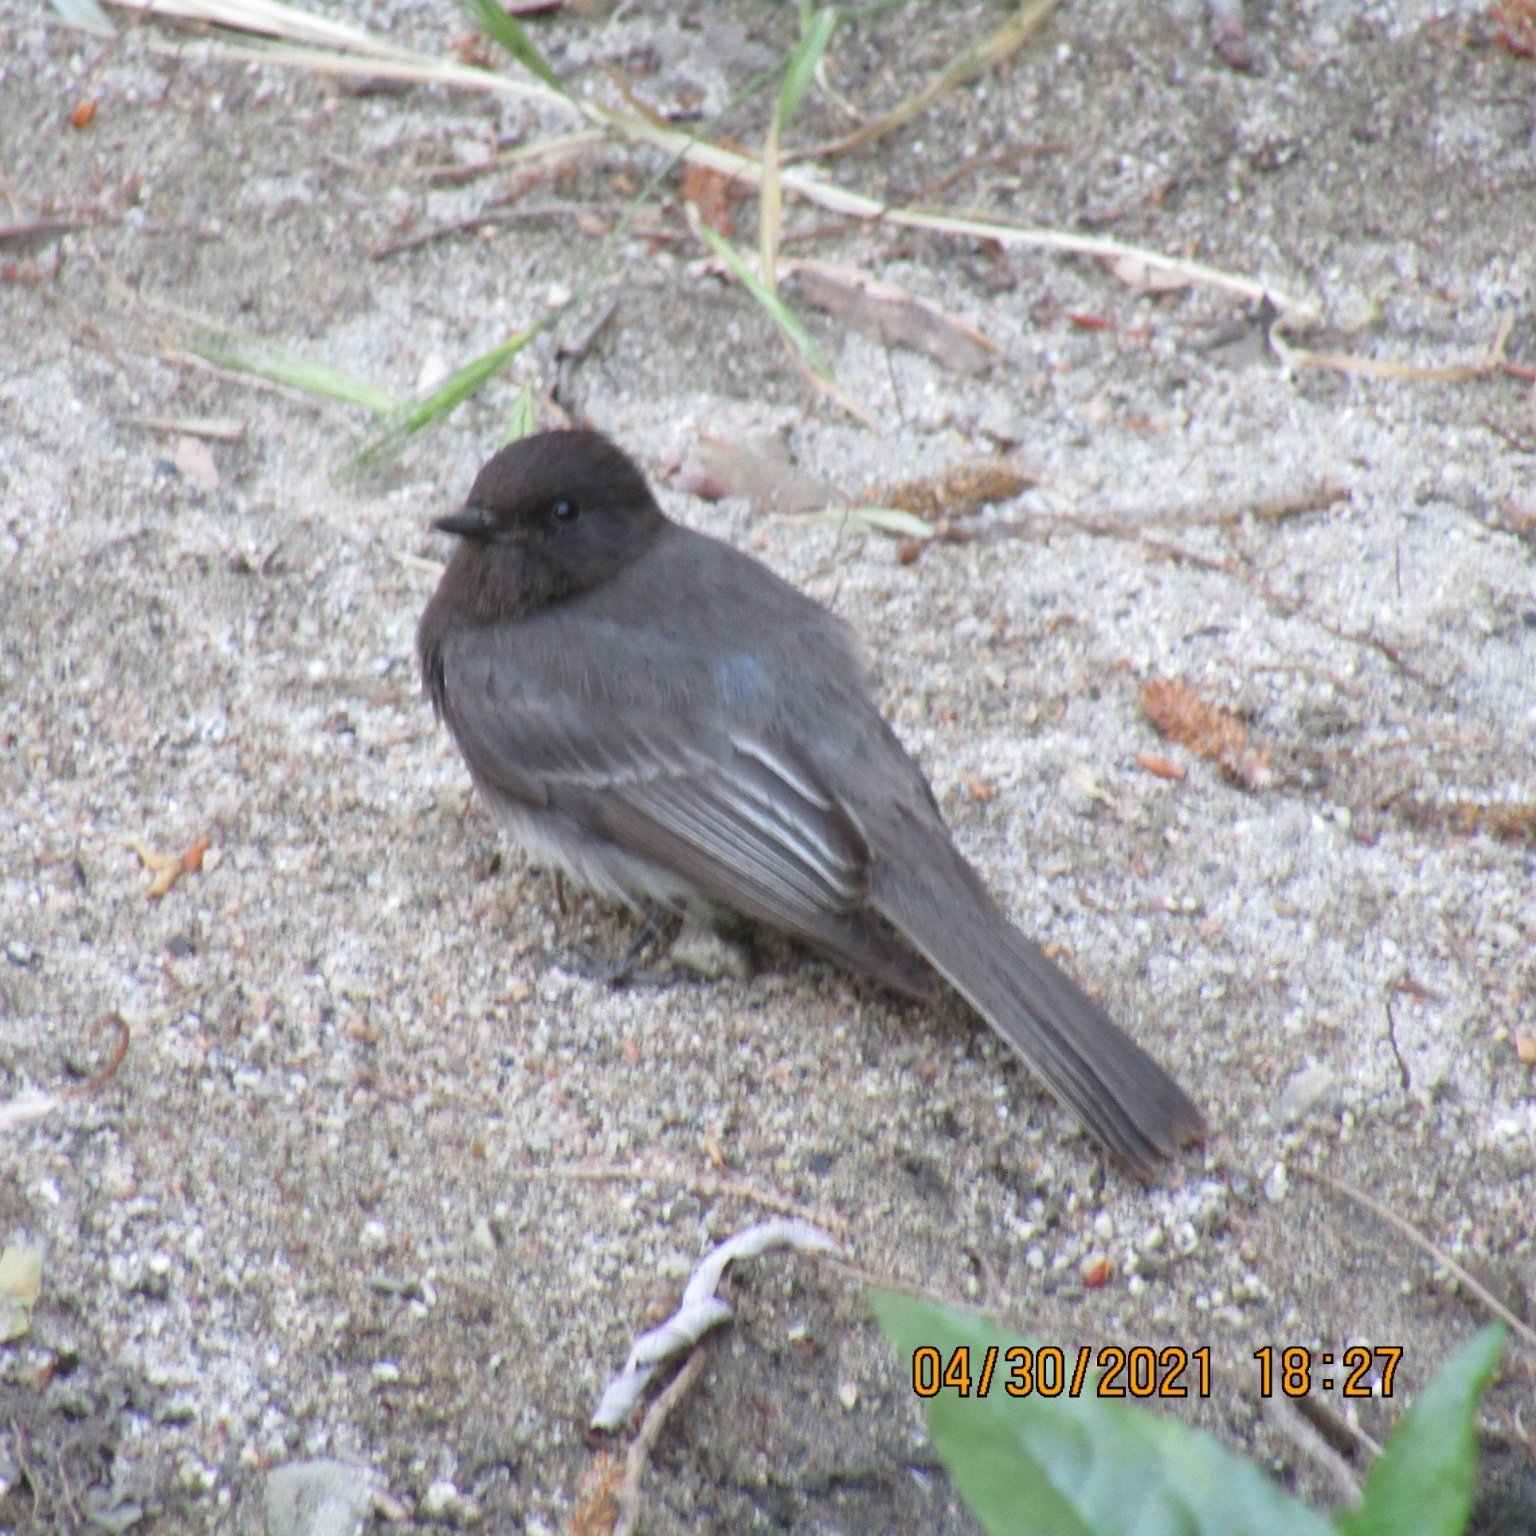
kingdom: Animalia
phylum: Chordata
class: Aves
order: Passeriformes
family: Tyrannidae
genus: Sayornis
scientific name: Sayornis nigricans
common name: Black phoebe
